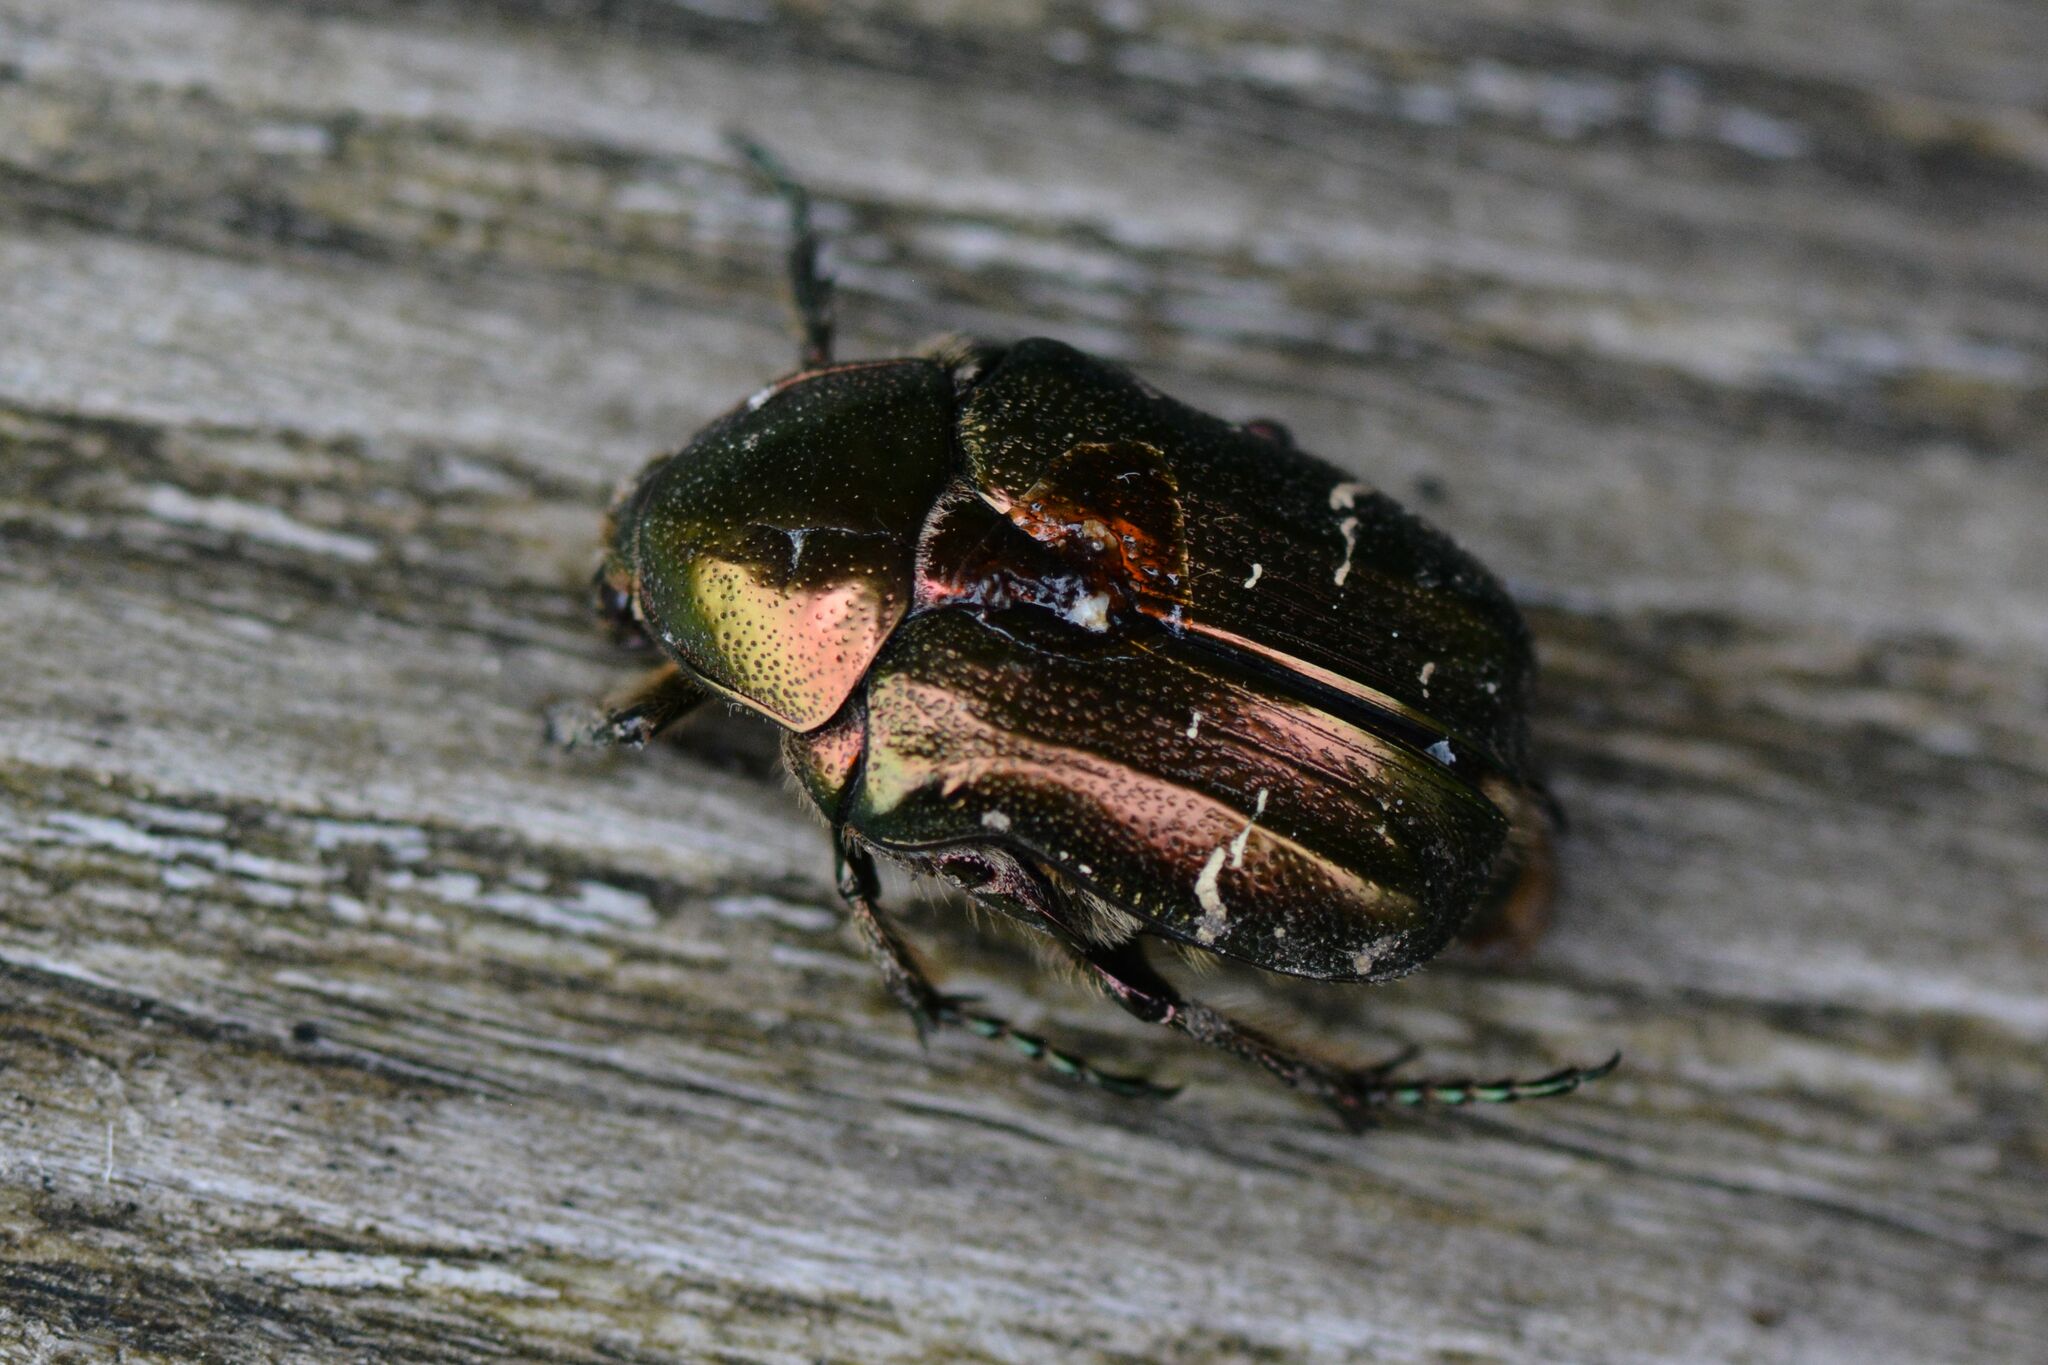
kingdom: Animalia
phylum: Arthropoda
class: Insecta
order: Coleoptera
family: Scarabaeidae
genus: Cetonia
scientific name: Cetonia aurata
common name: Rose chafer
